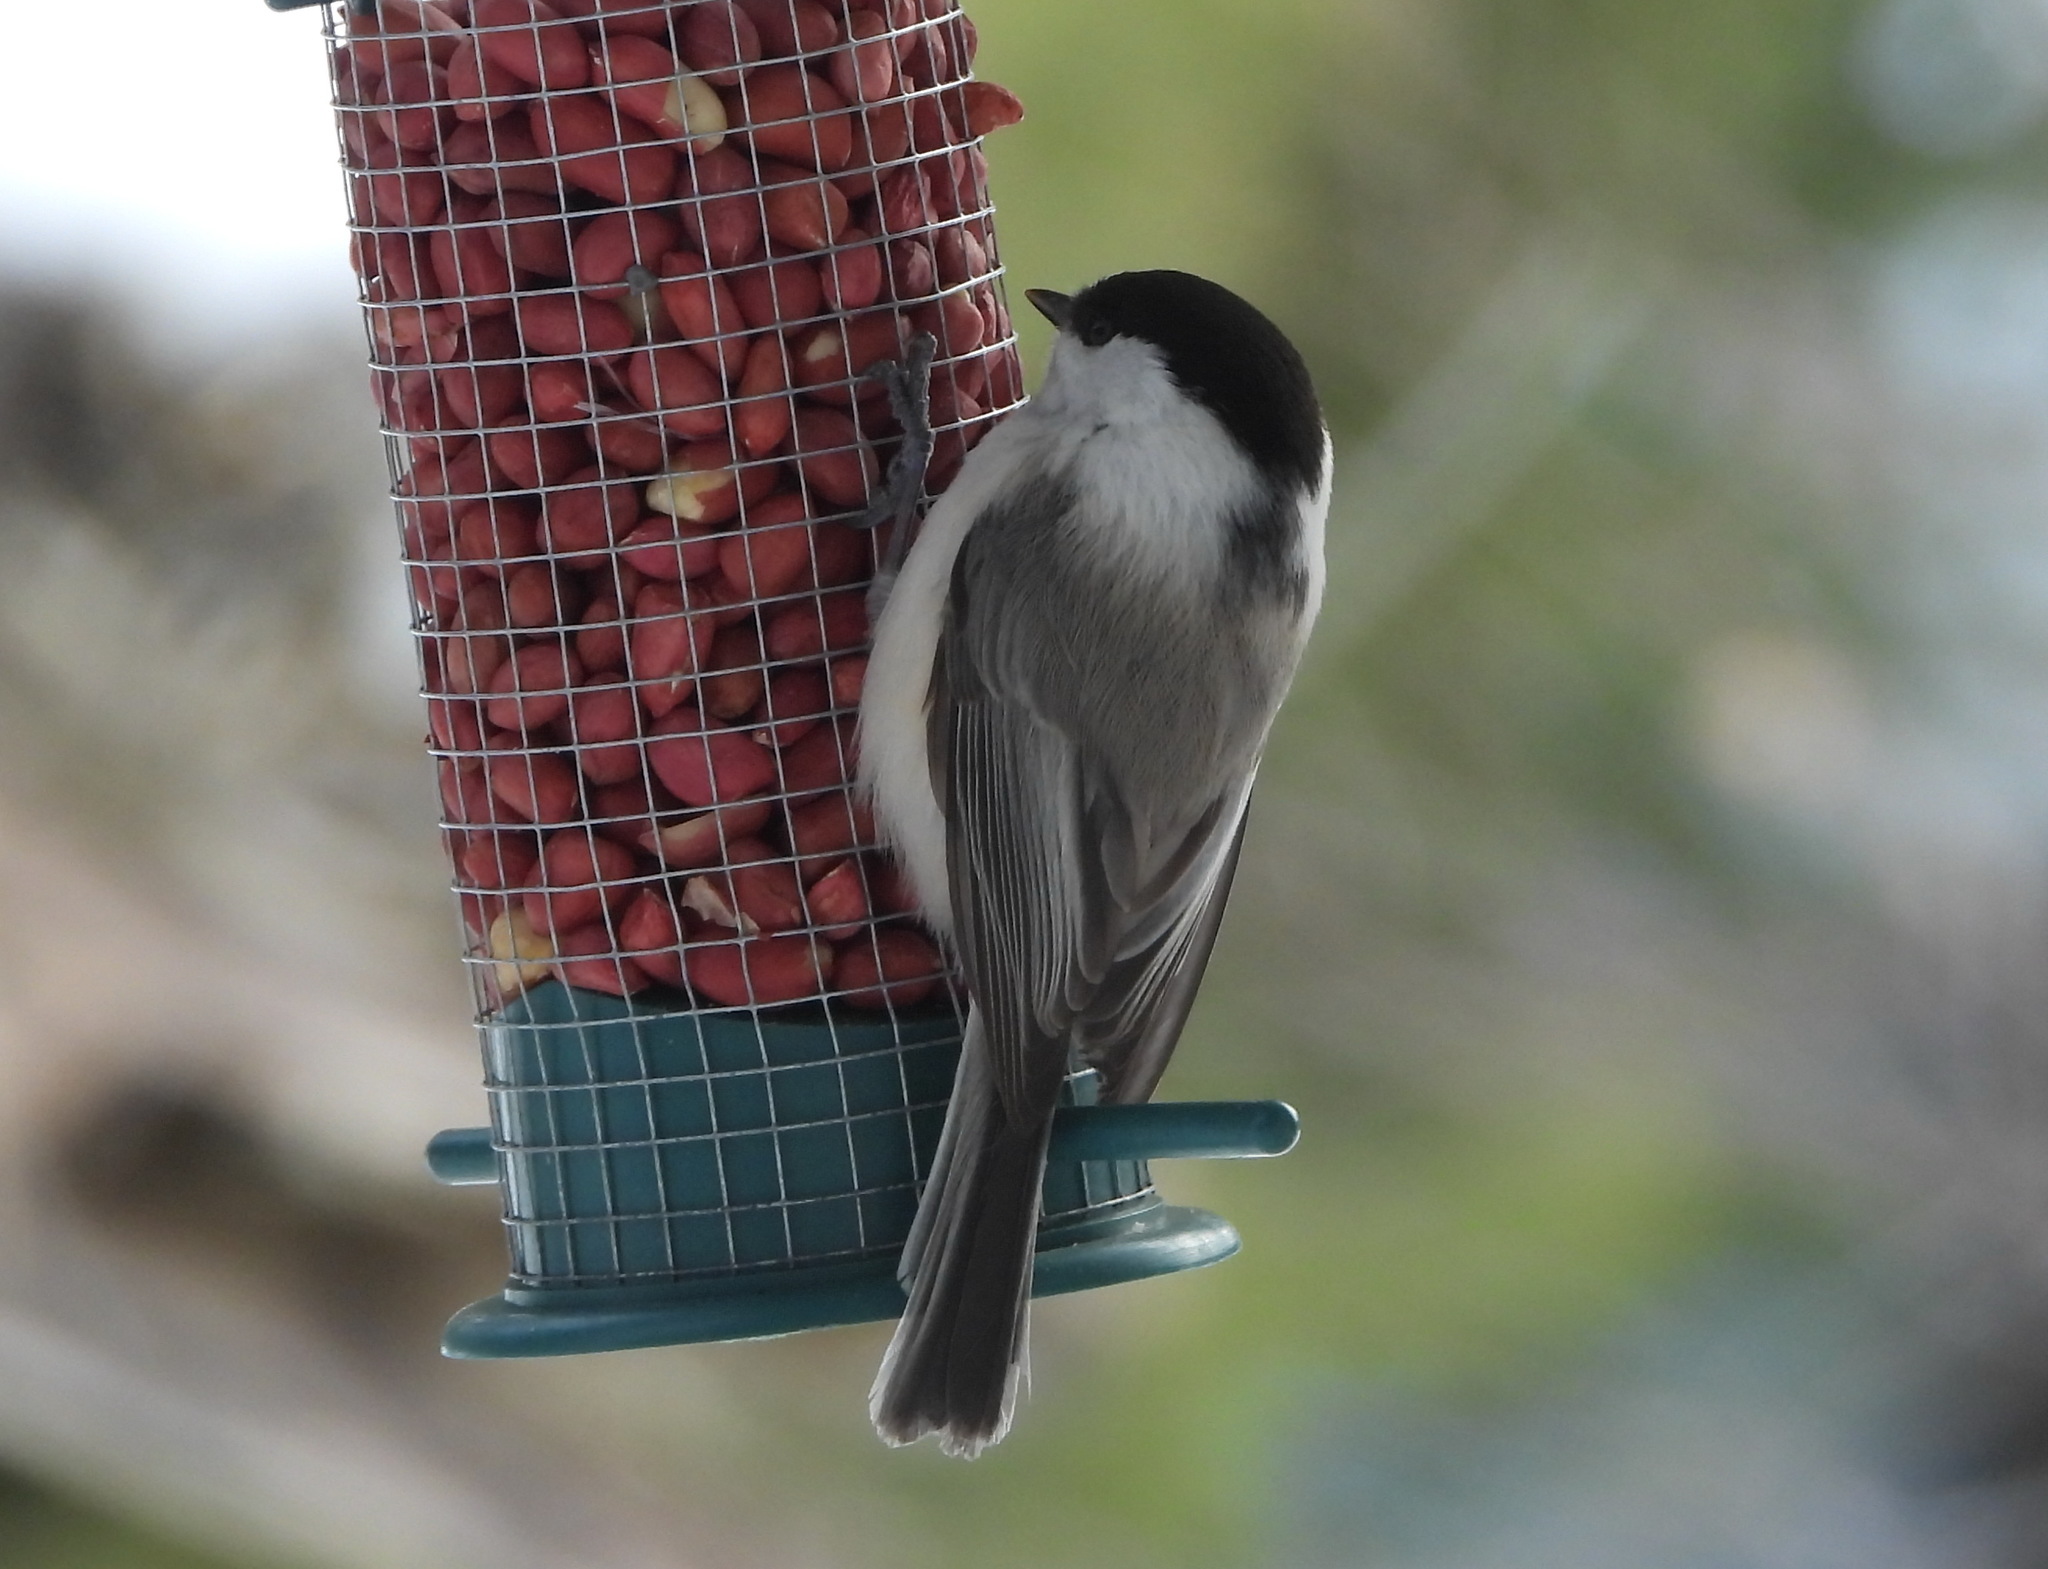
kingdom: Animalia
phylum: Chordata
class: Aves
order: Passeriformes
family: Paridae
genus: Poecile
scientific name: Poecile montanus
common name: Willow tit
